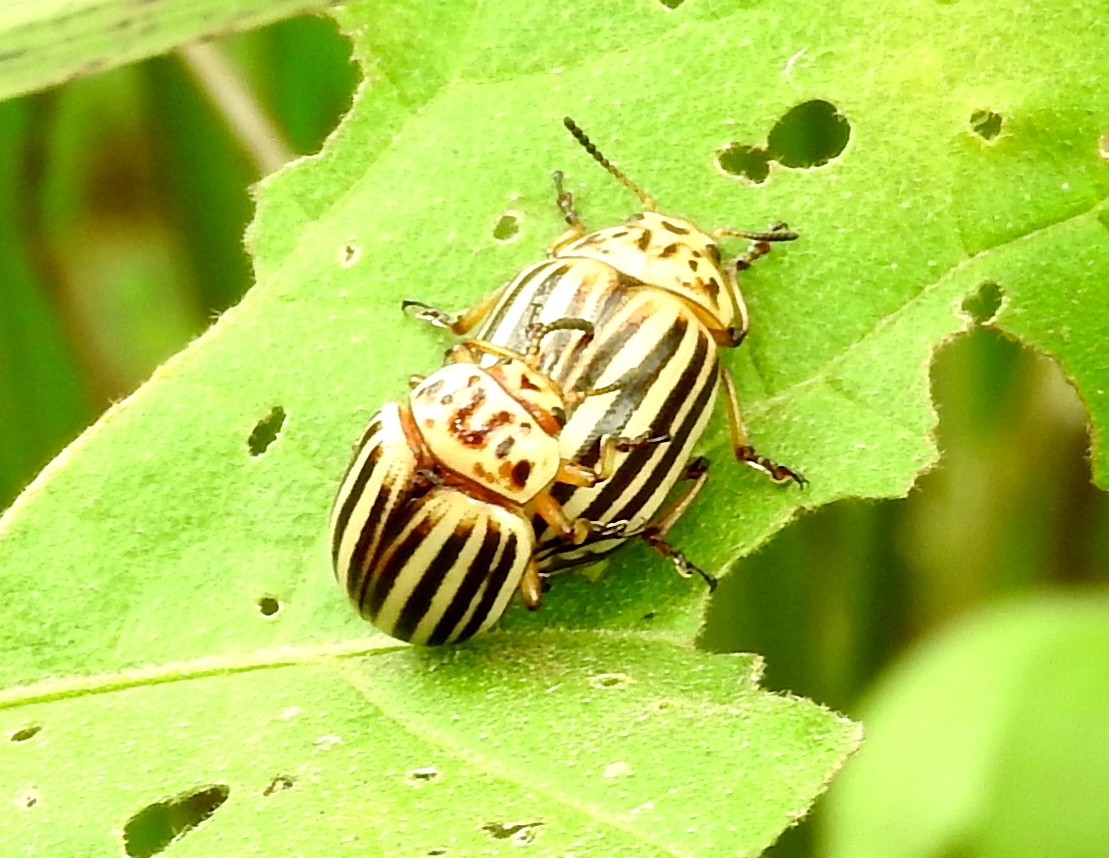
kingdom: Animalia
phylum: Arthropoda
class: Insecta
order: Coleoptera
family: Chrysomelidae
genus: Leptinotarsa
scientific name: Leptinotarsa decemlineata
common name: Colorado potato beetle
